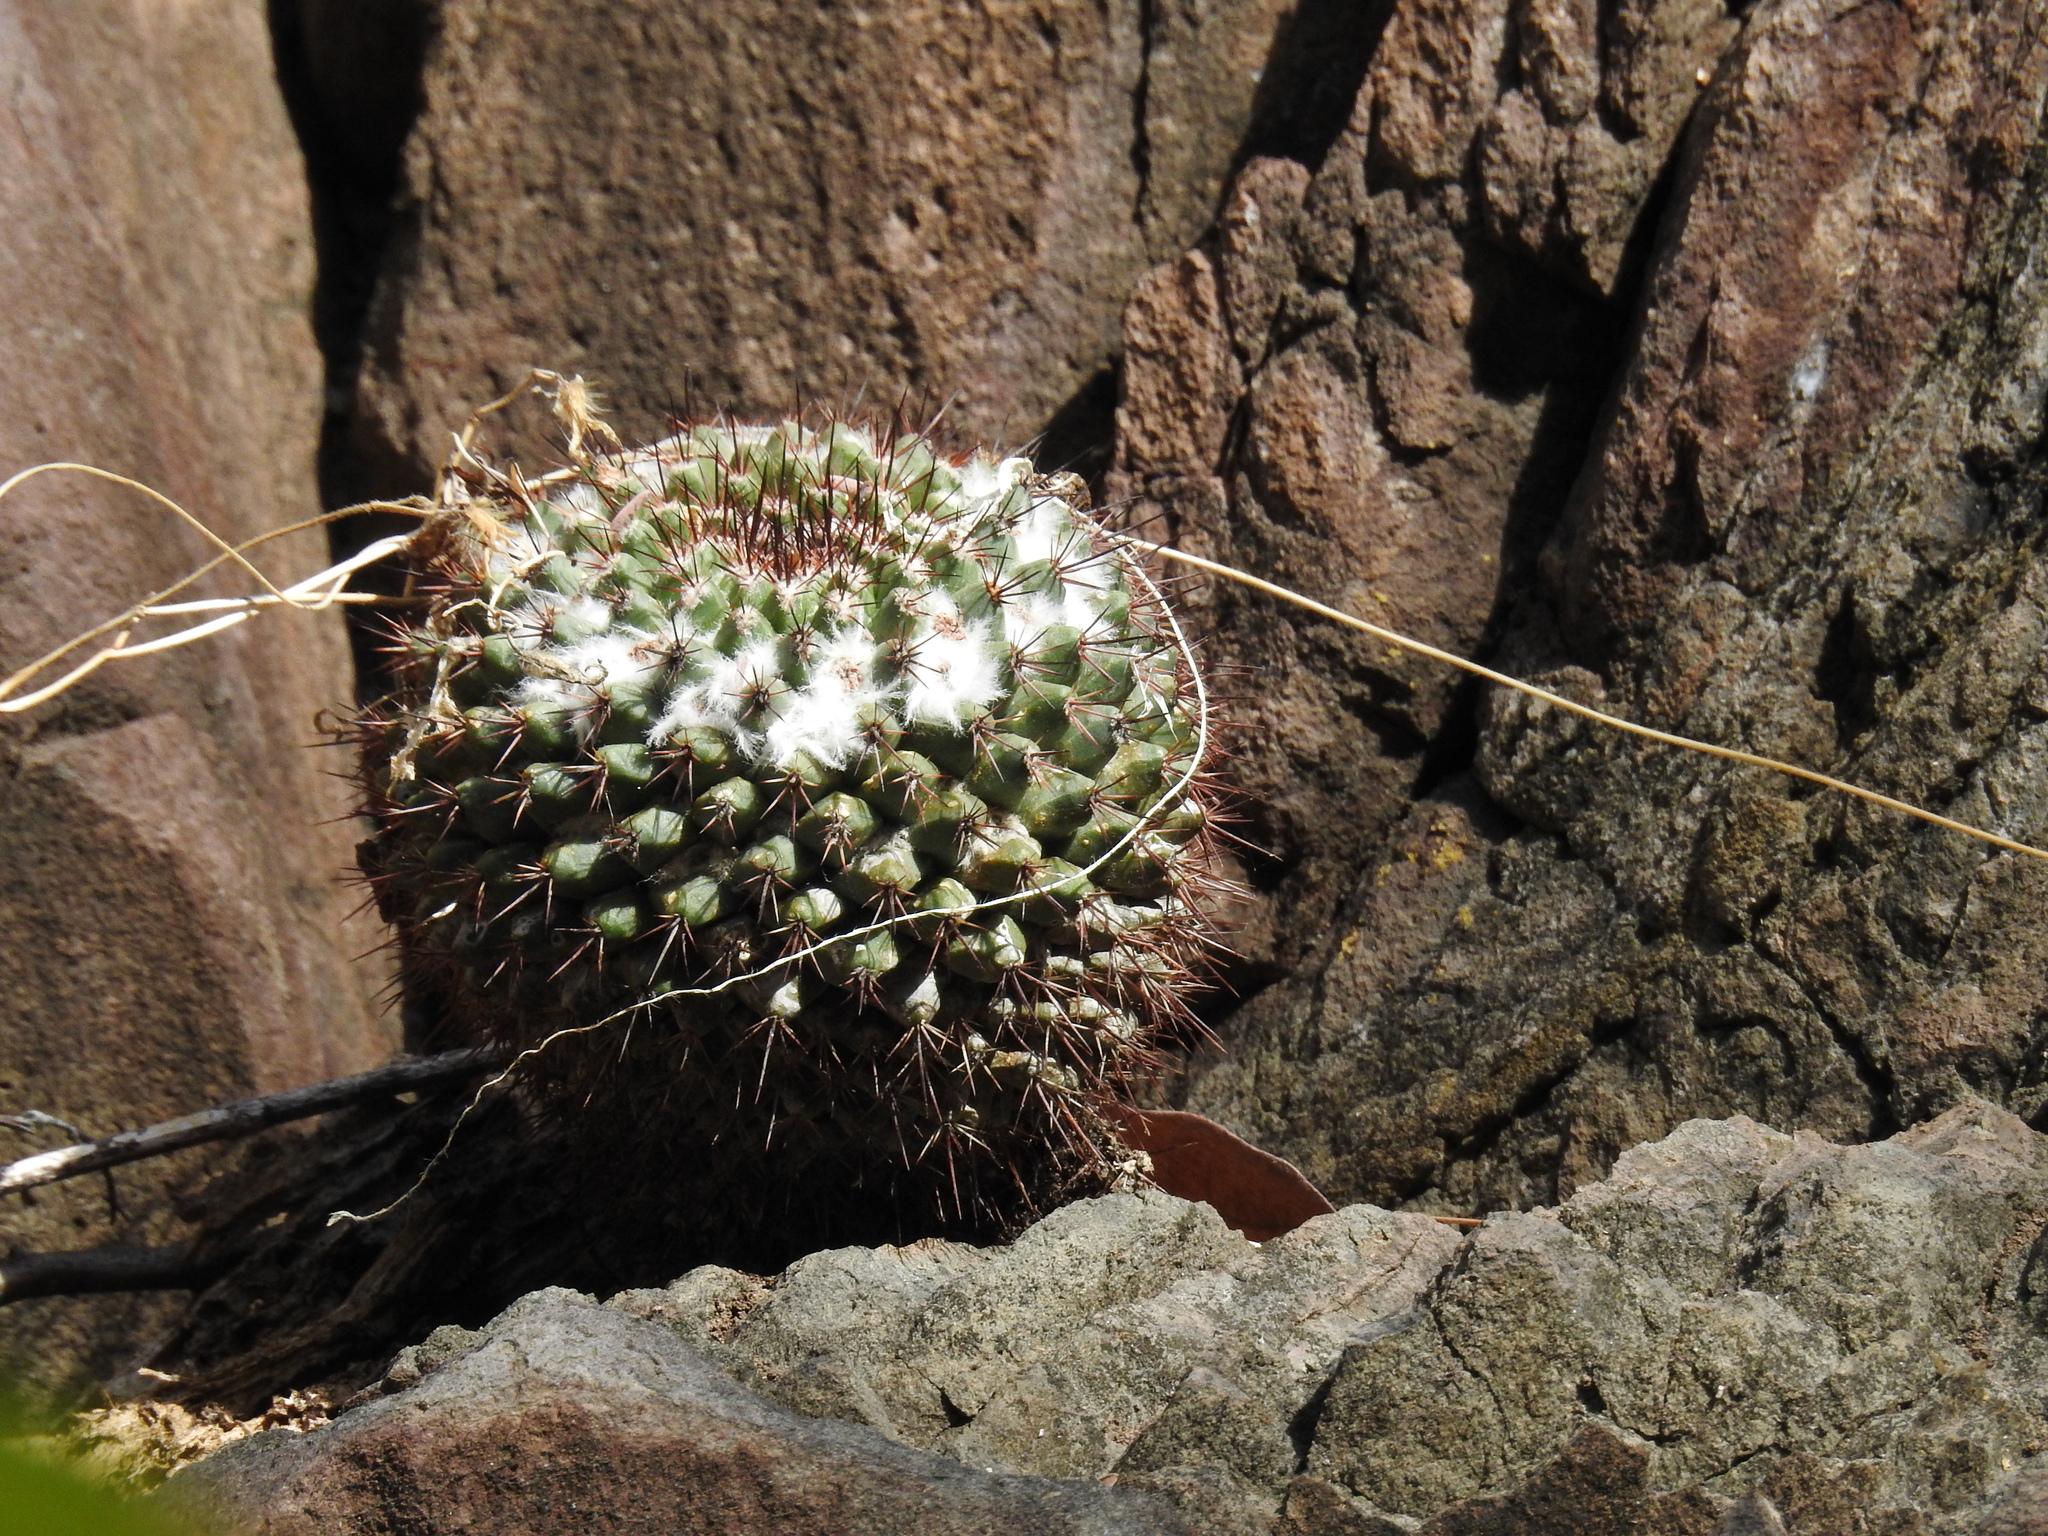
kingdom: Plantae
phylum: Tracheophyta
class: Magnoliopsida
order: Caryophyllales
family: Cactaceae
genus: Mammillaria
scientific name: Mammillaria sonorensis
